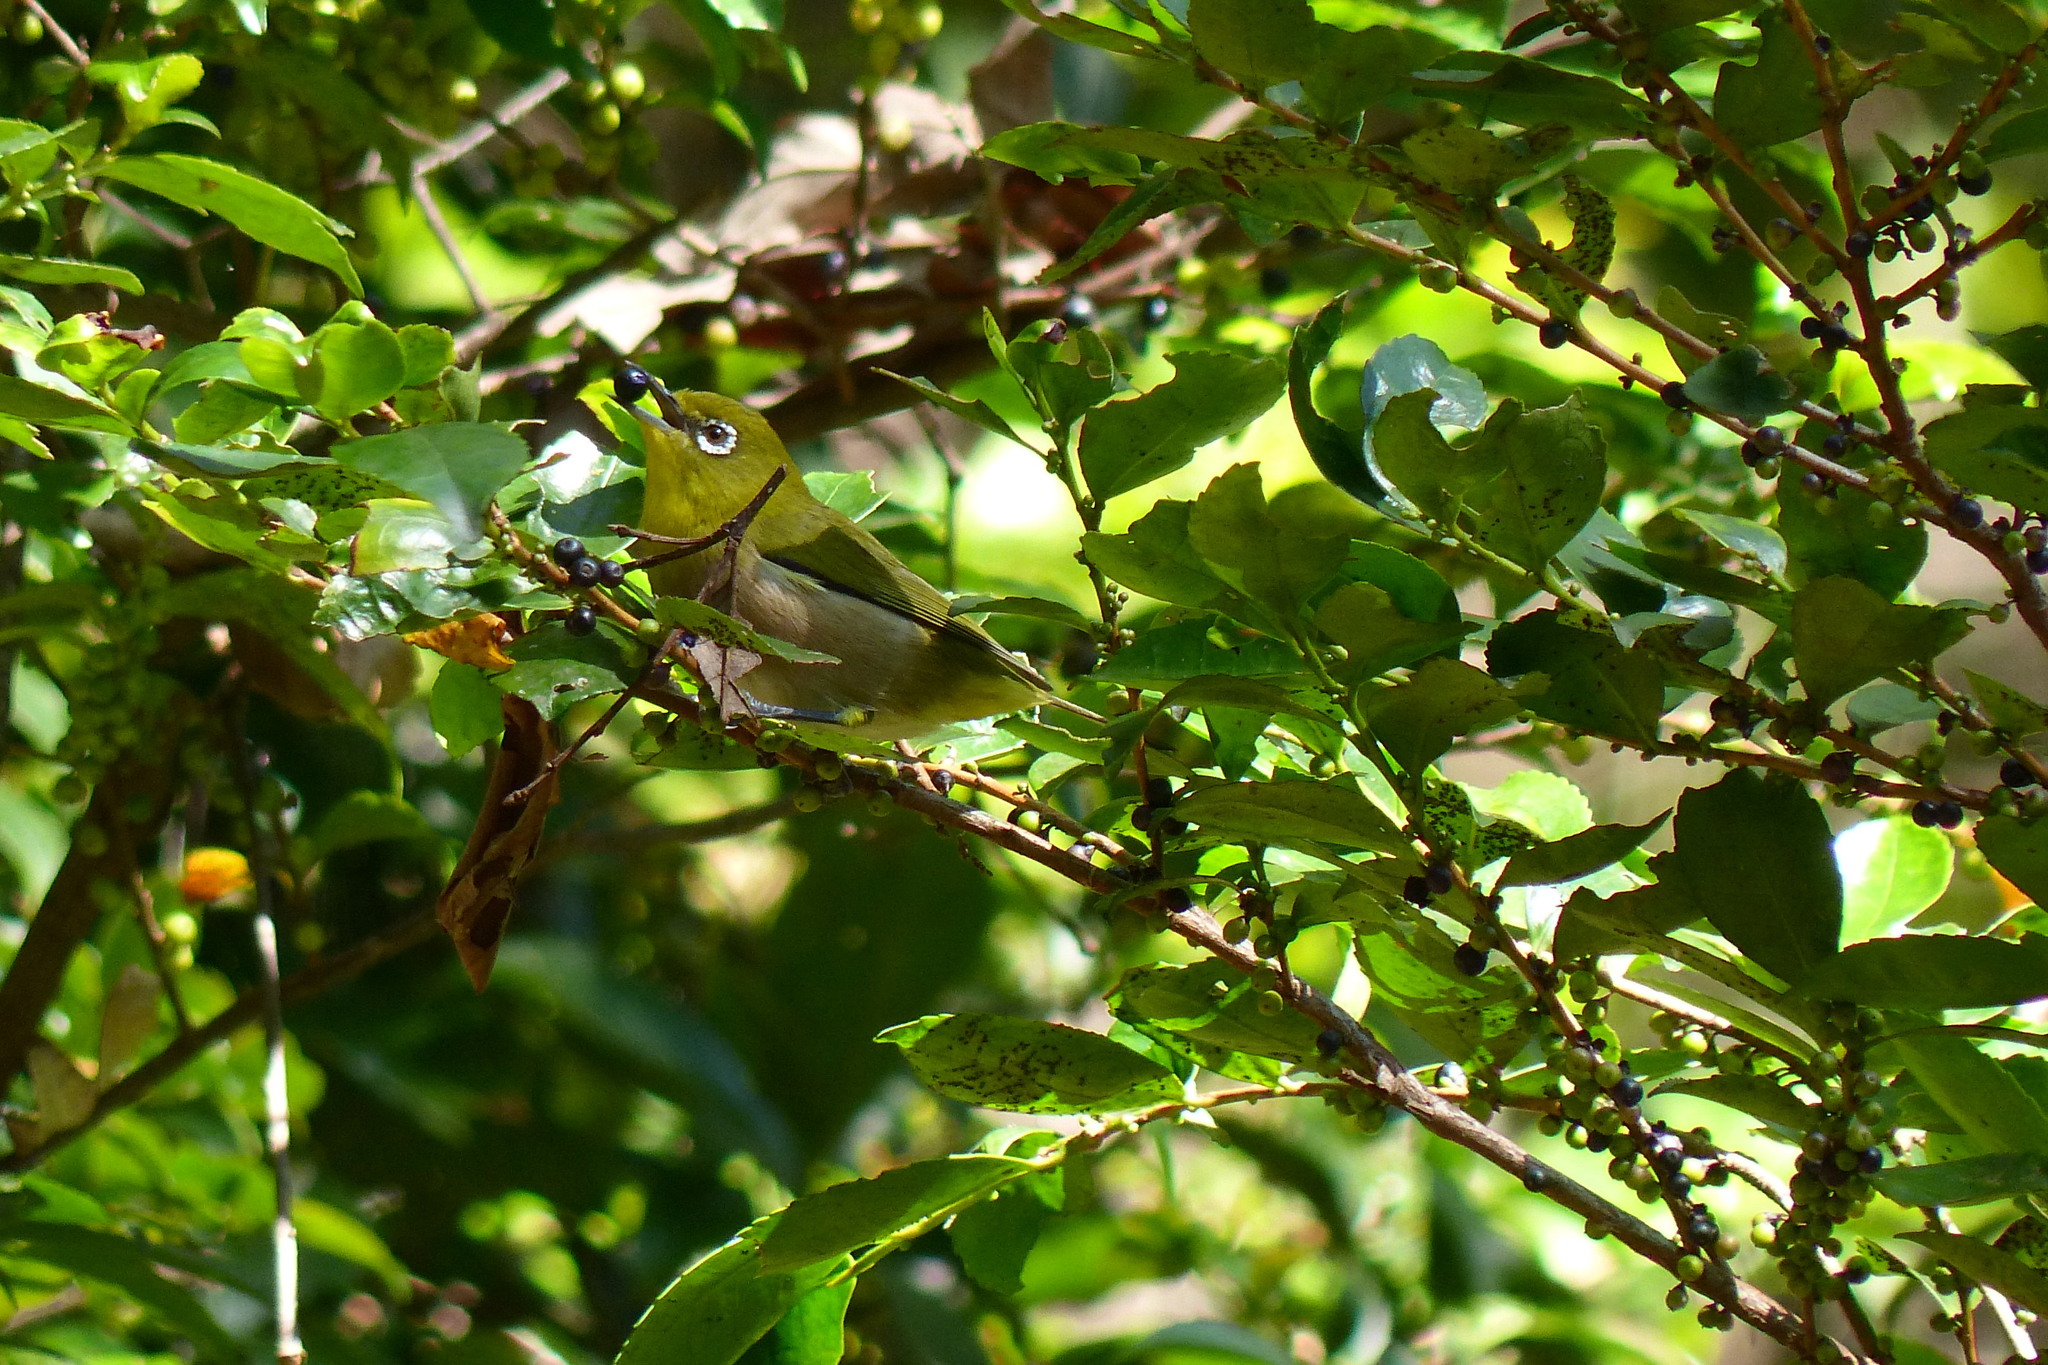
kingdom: Animalia
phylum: Chordata
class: Aves
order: Passeriformes
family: Zosteropidae
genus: Zosterops
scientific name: Zosterops japonicus
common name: Japanese white-eye
